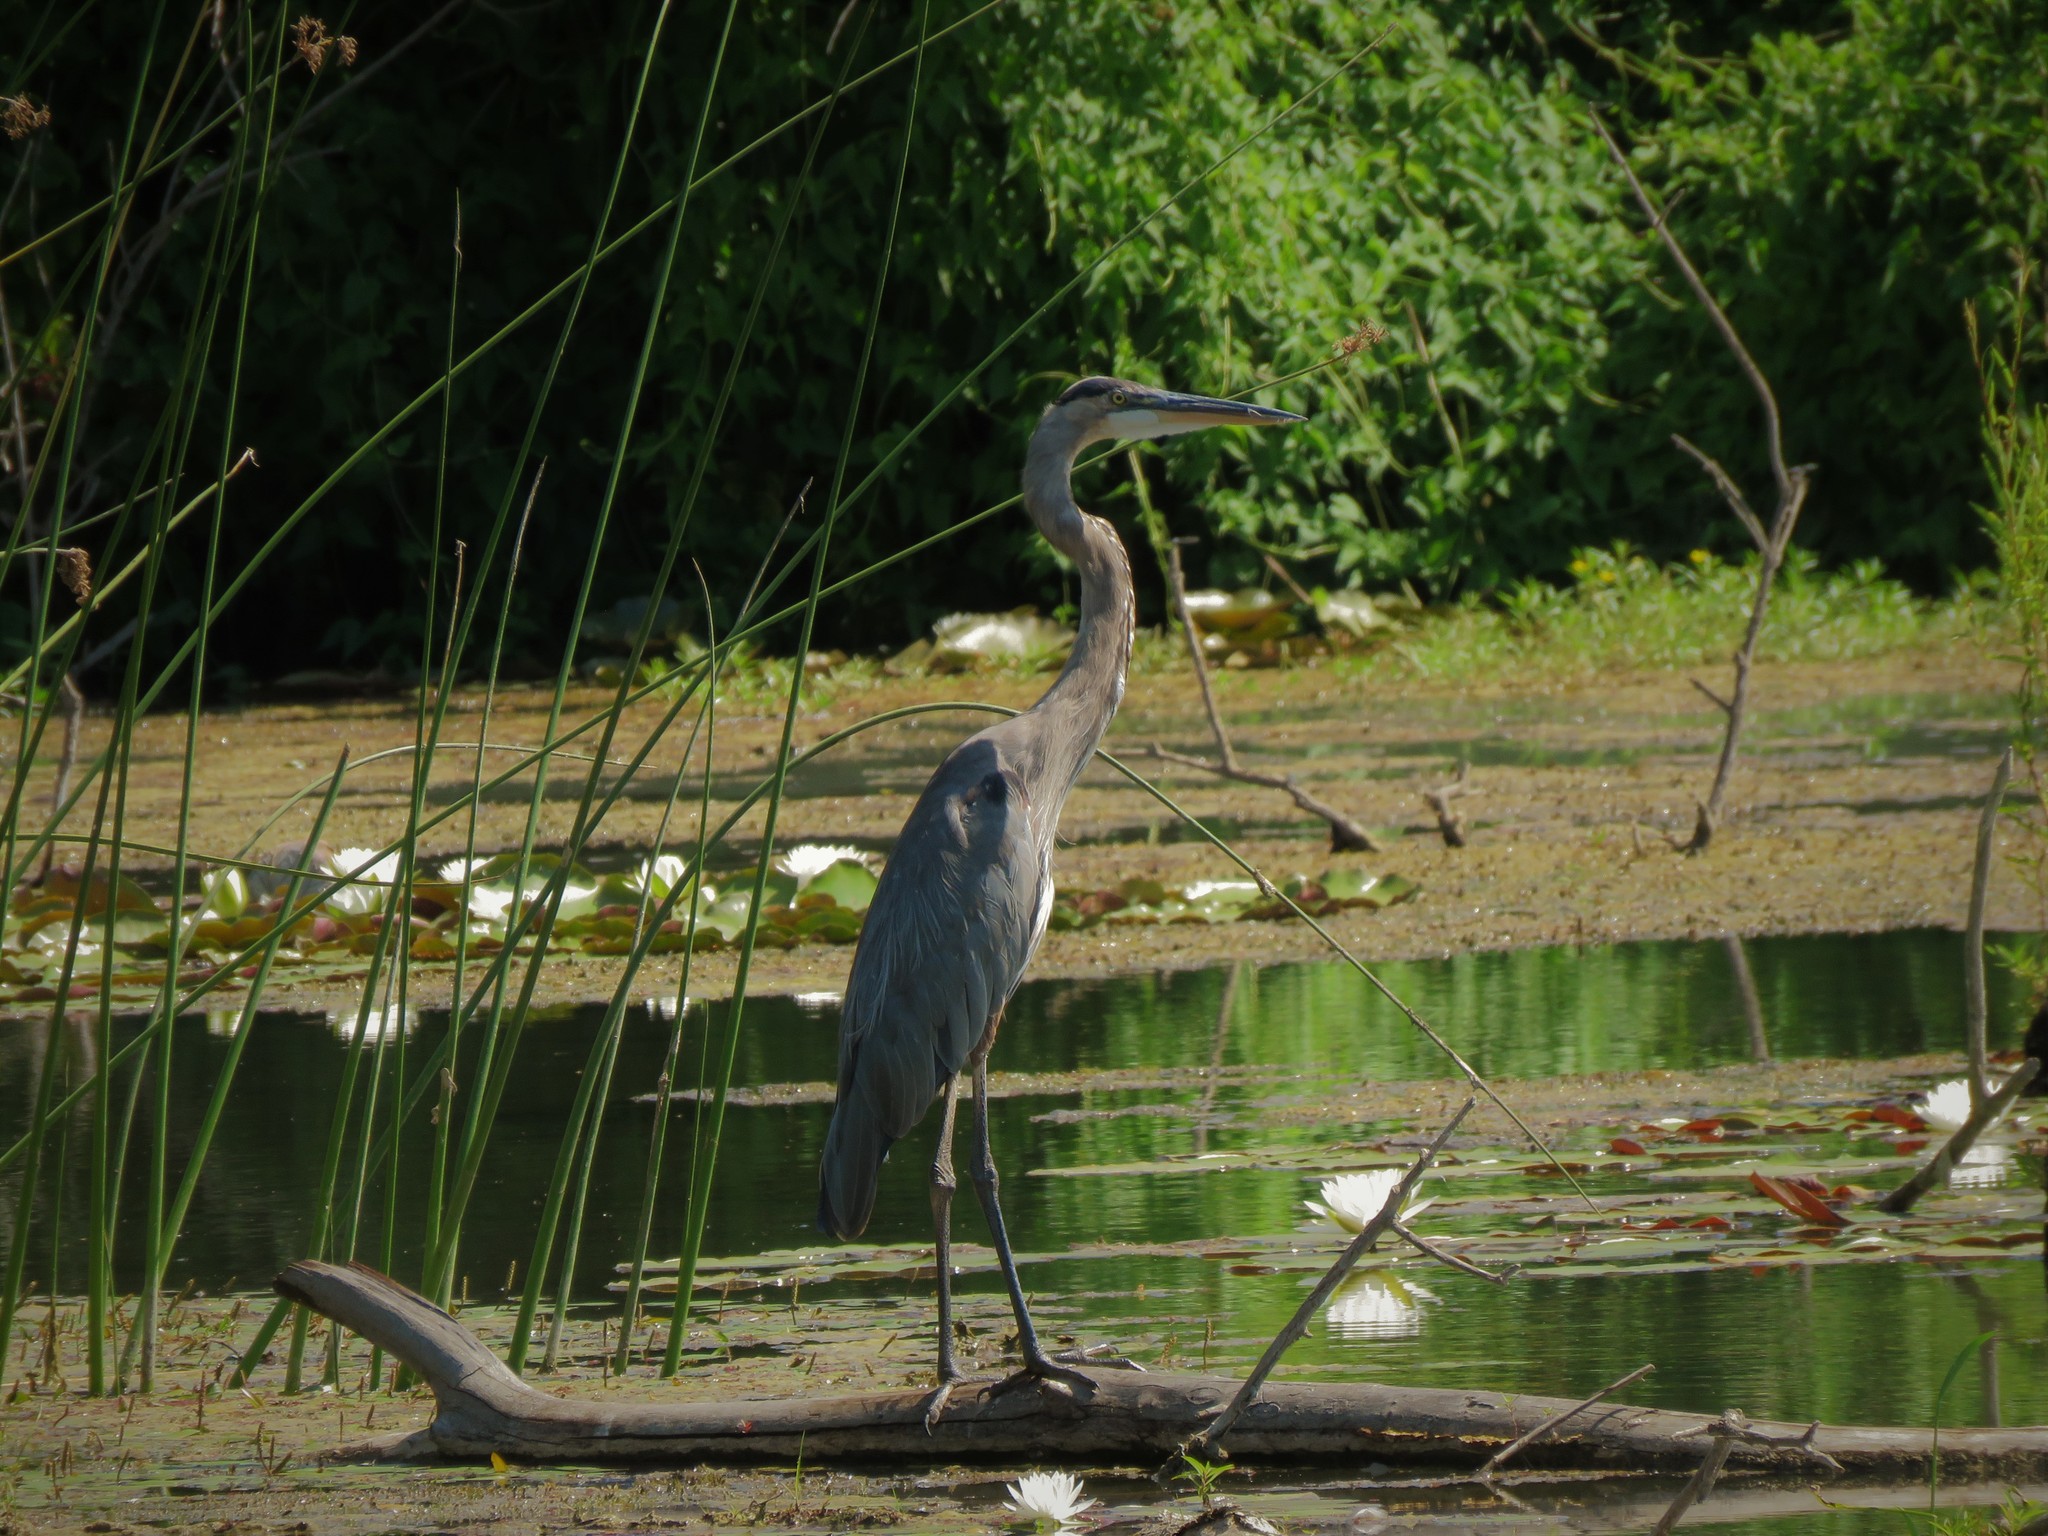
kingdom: Animalia
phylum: Chordata
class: Aves
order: Pelecaniformes
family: Ardeidae
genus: Ardea
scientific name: Ardea herodias
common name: Great blue heron
